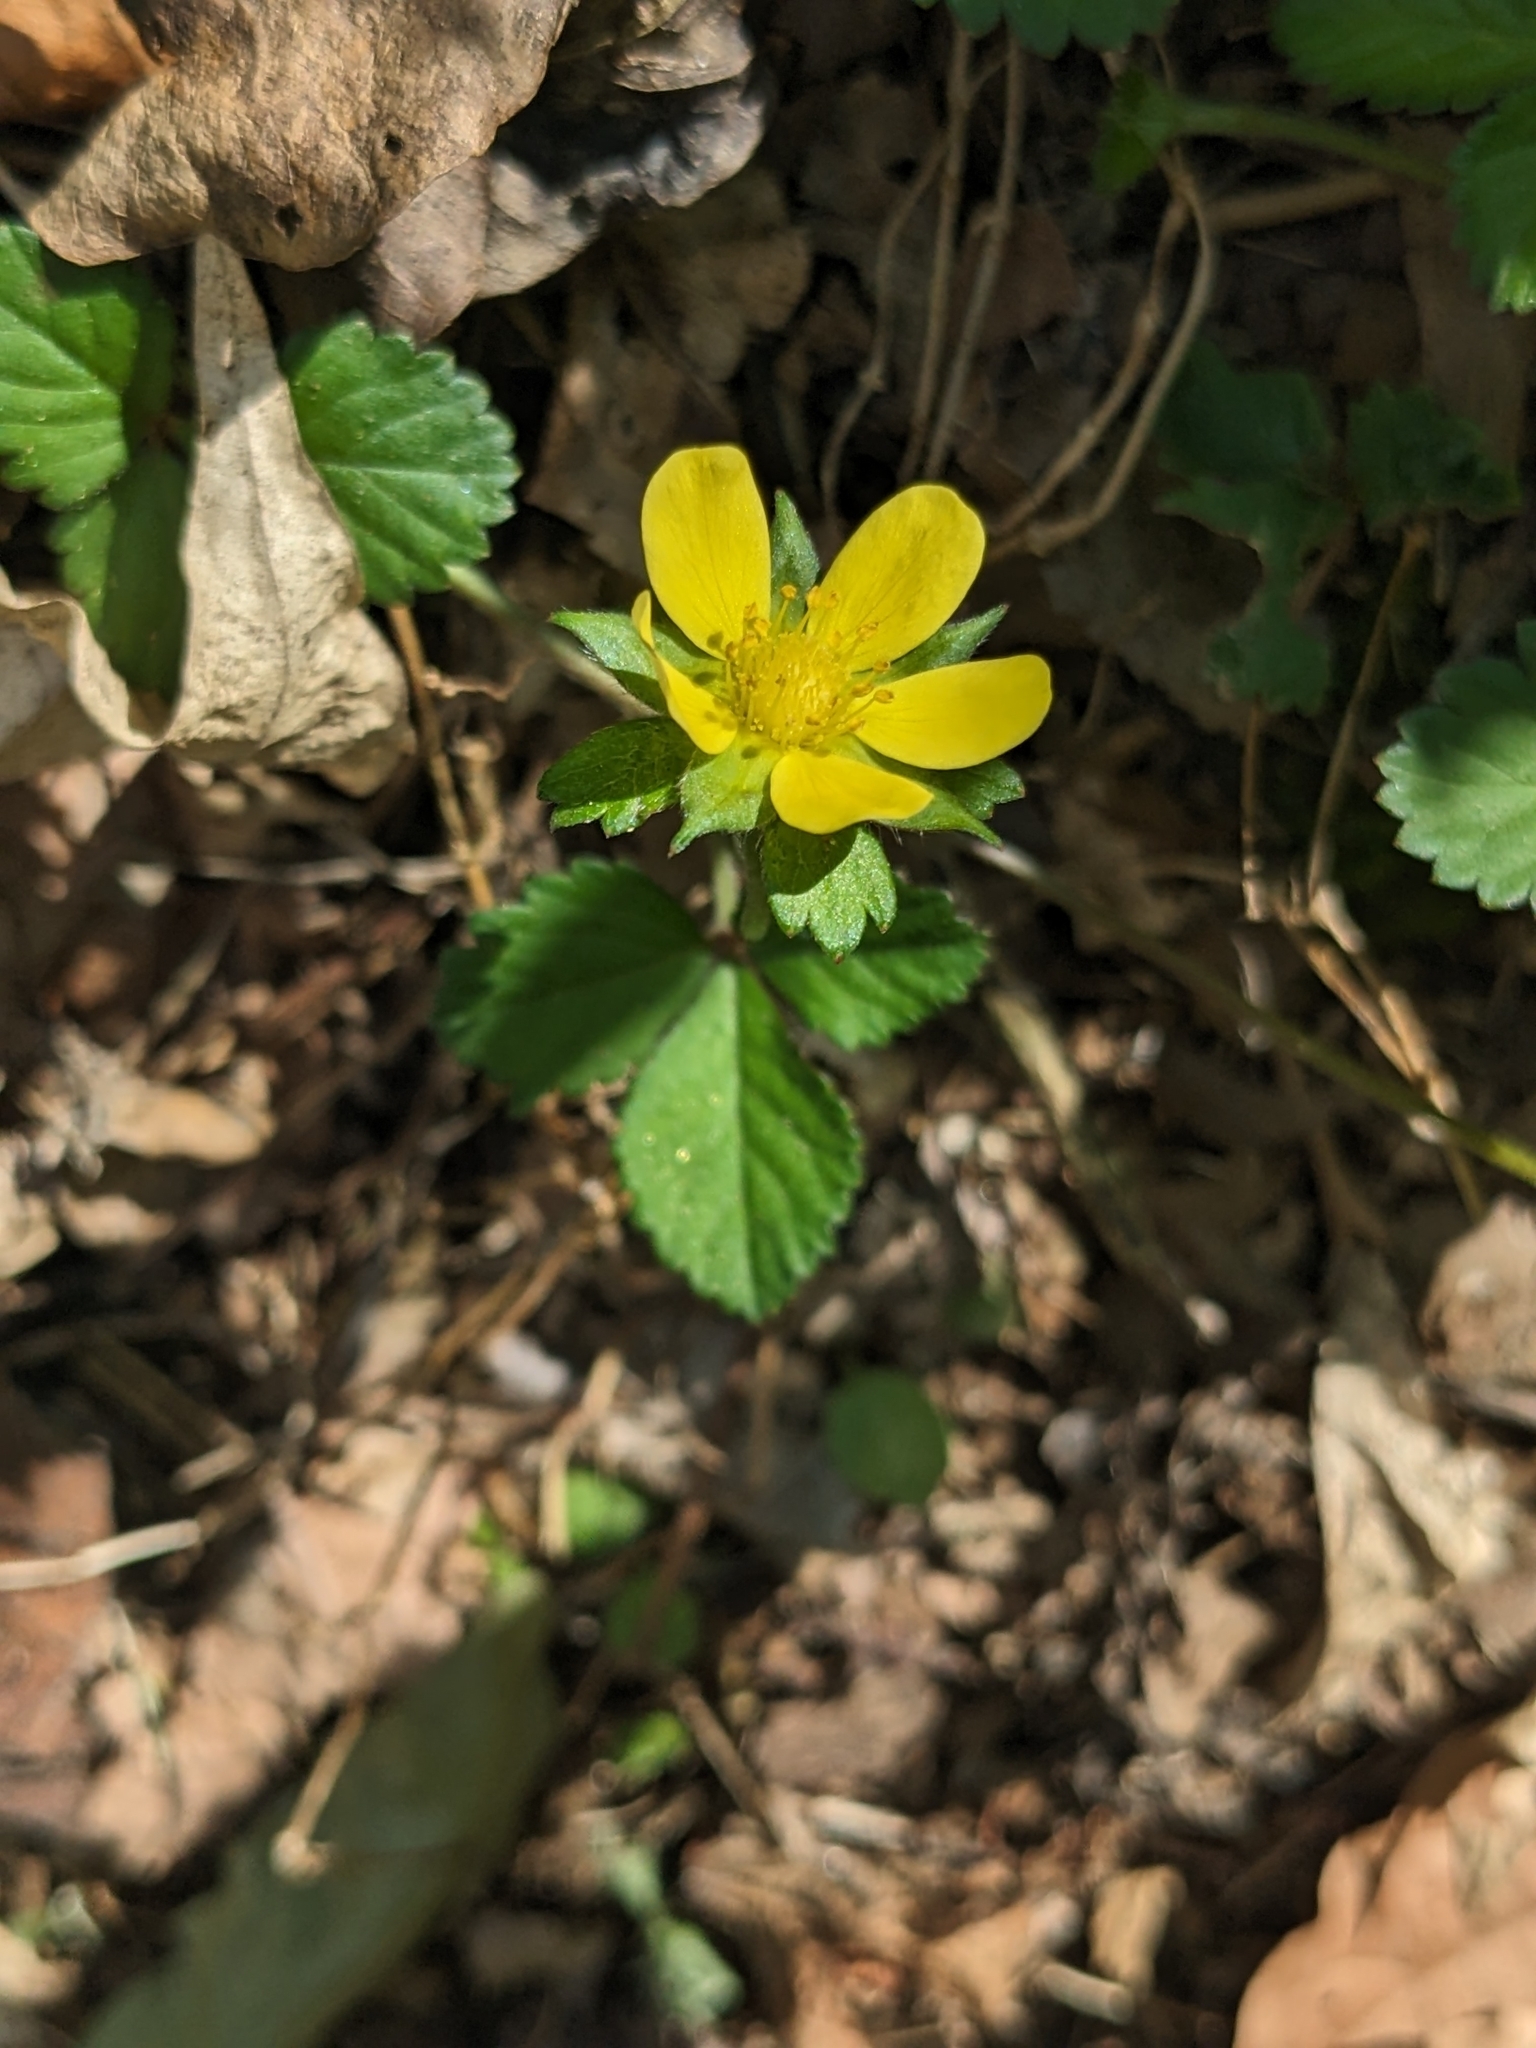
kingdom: Plantae
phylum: Tracheophyta
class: Magnoliopsida
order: Rosales
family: Rosaceae
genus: Potentilla
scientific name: Potentilla indica
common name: Yellow-flowered strawberry
